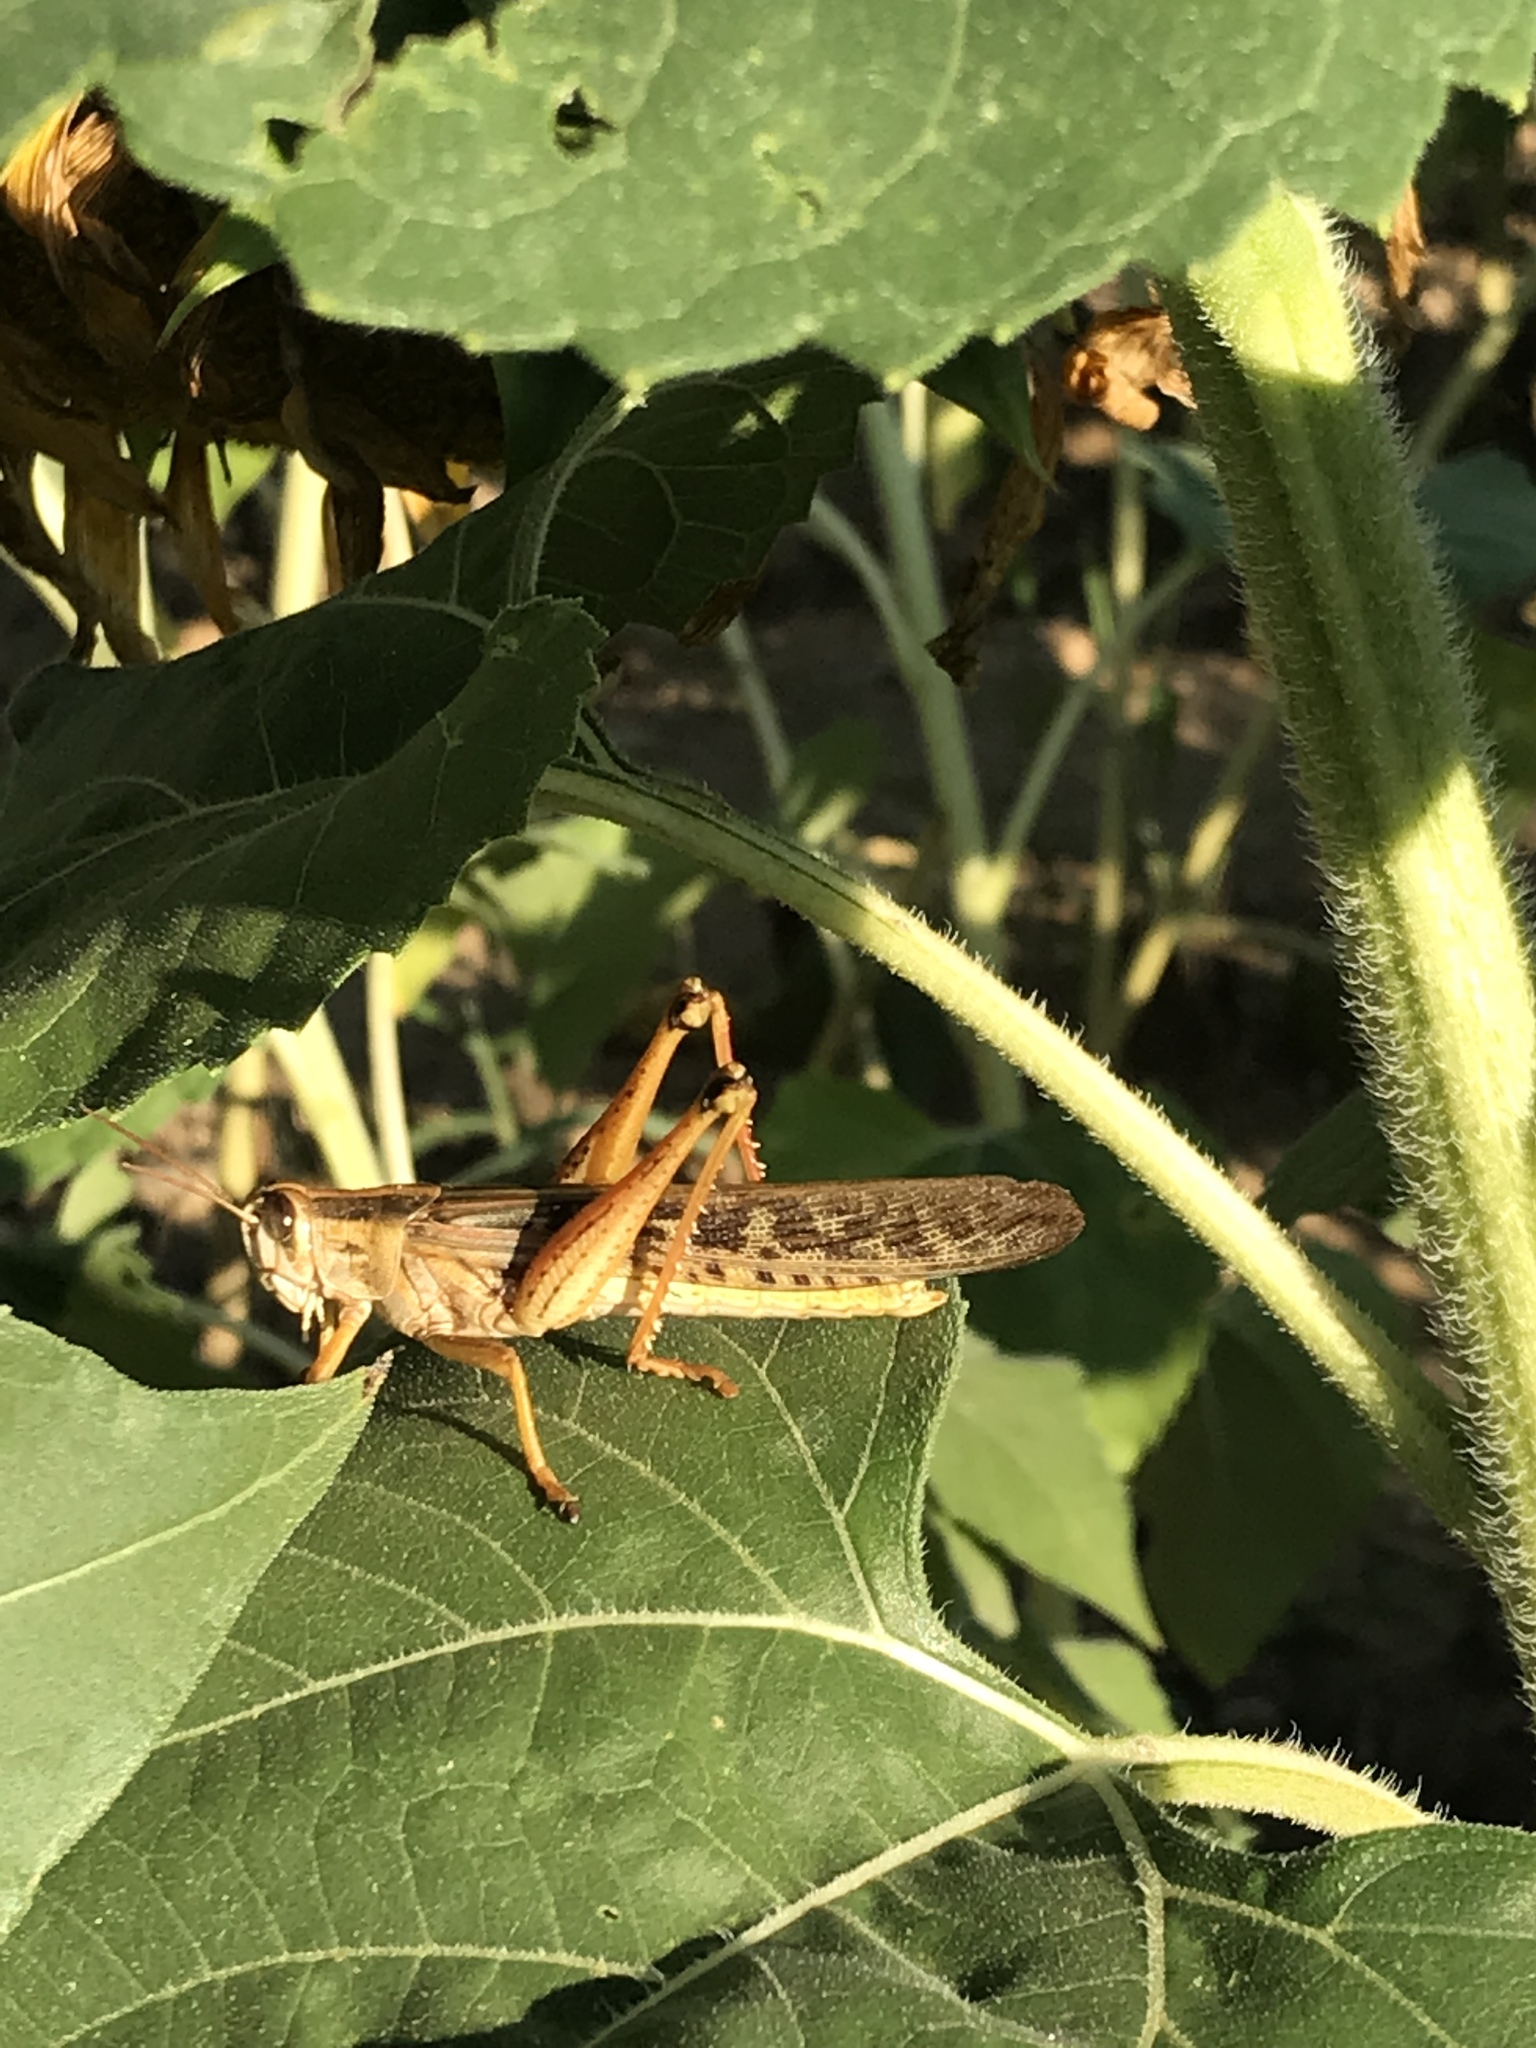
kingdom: Animalia
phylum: Arthropoda
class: Insecta
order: Orthoptera
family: Acrididae
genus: Schistocerca
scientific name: Schistocerca americana
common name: American bird locust
